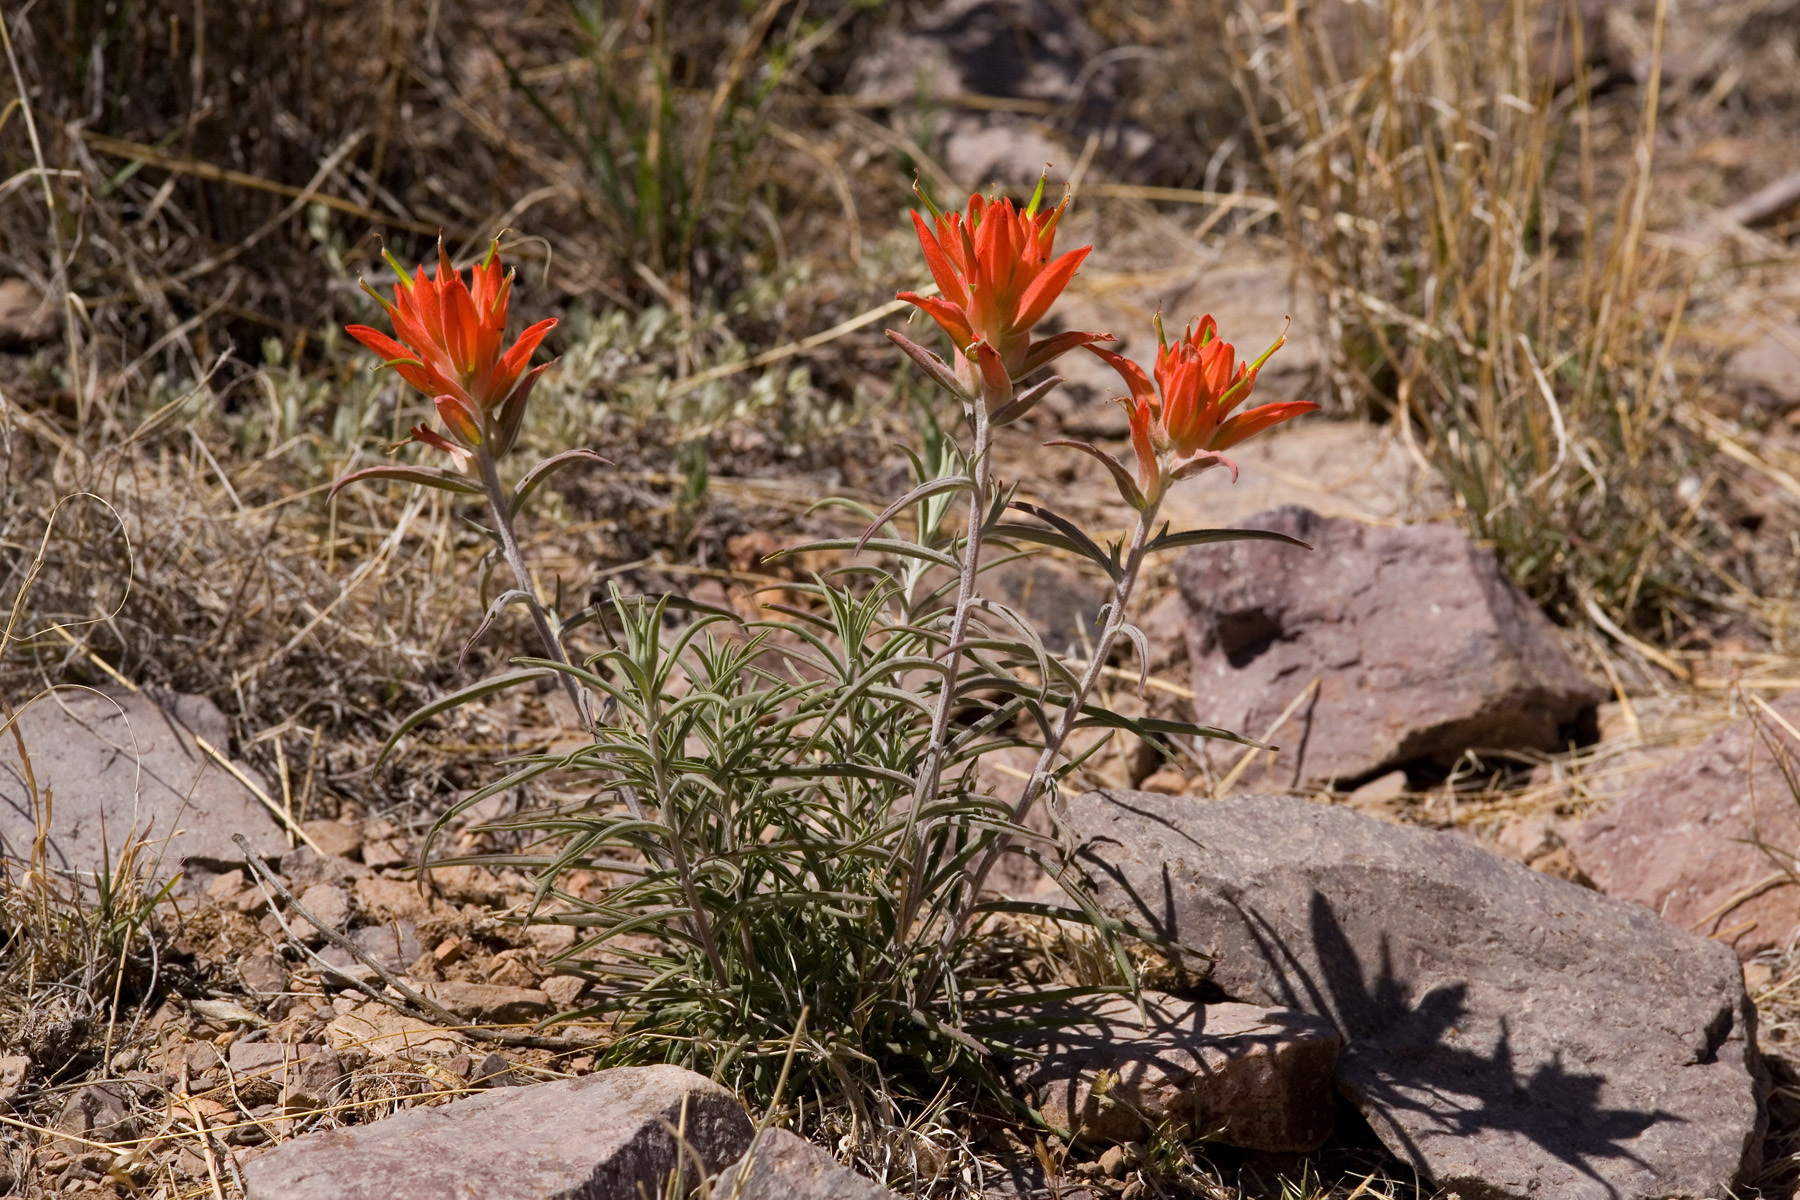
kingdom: Plantae
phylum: Tracheophyta
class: Magnoliopsida
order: Lamiales
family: Orobanchaceae
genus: Castilleja
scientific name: Castilleja integra
